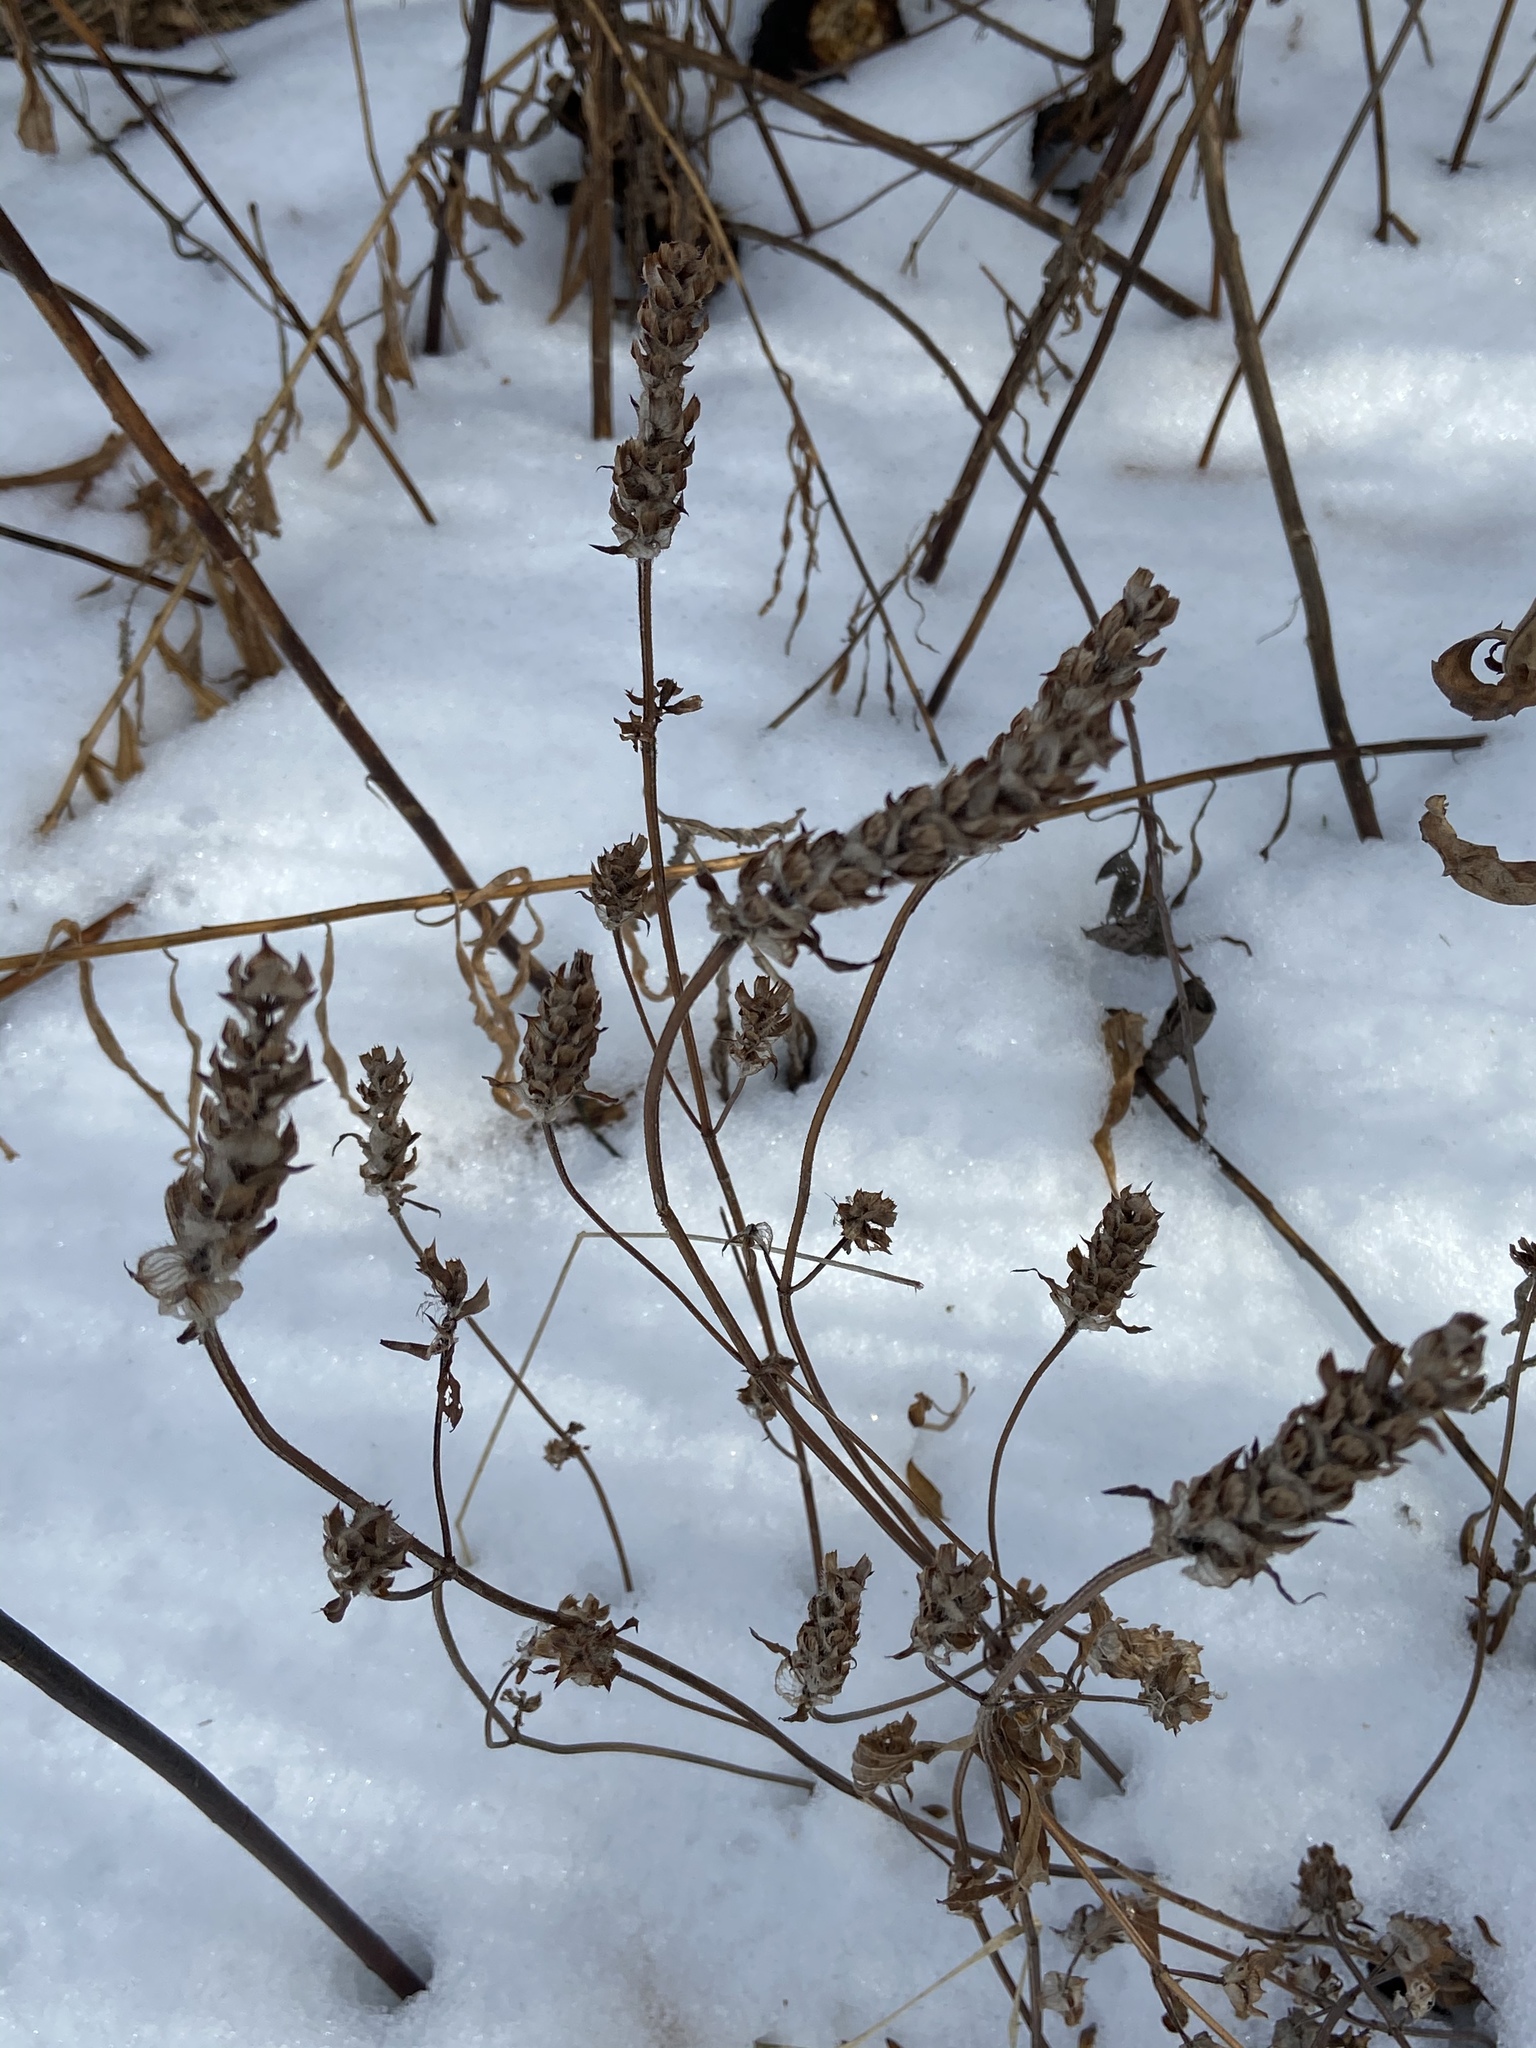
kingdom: Plantae
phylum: Tracheophyta
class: Magnoliopsida
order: Lamiales
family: Lamiaceae
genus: Prunella
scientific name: Prunella vulgaris
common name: Heal-all
